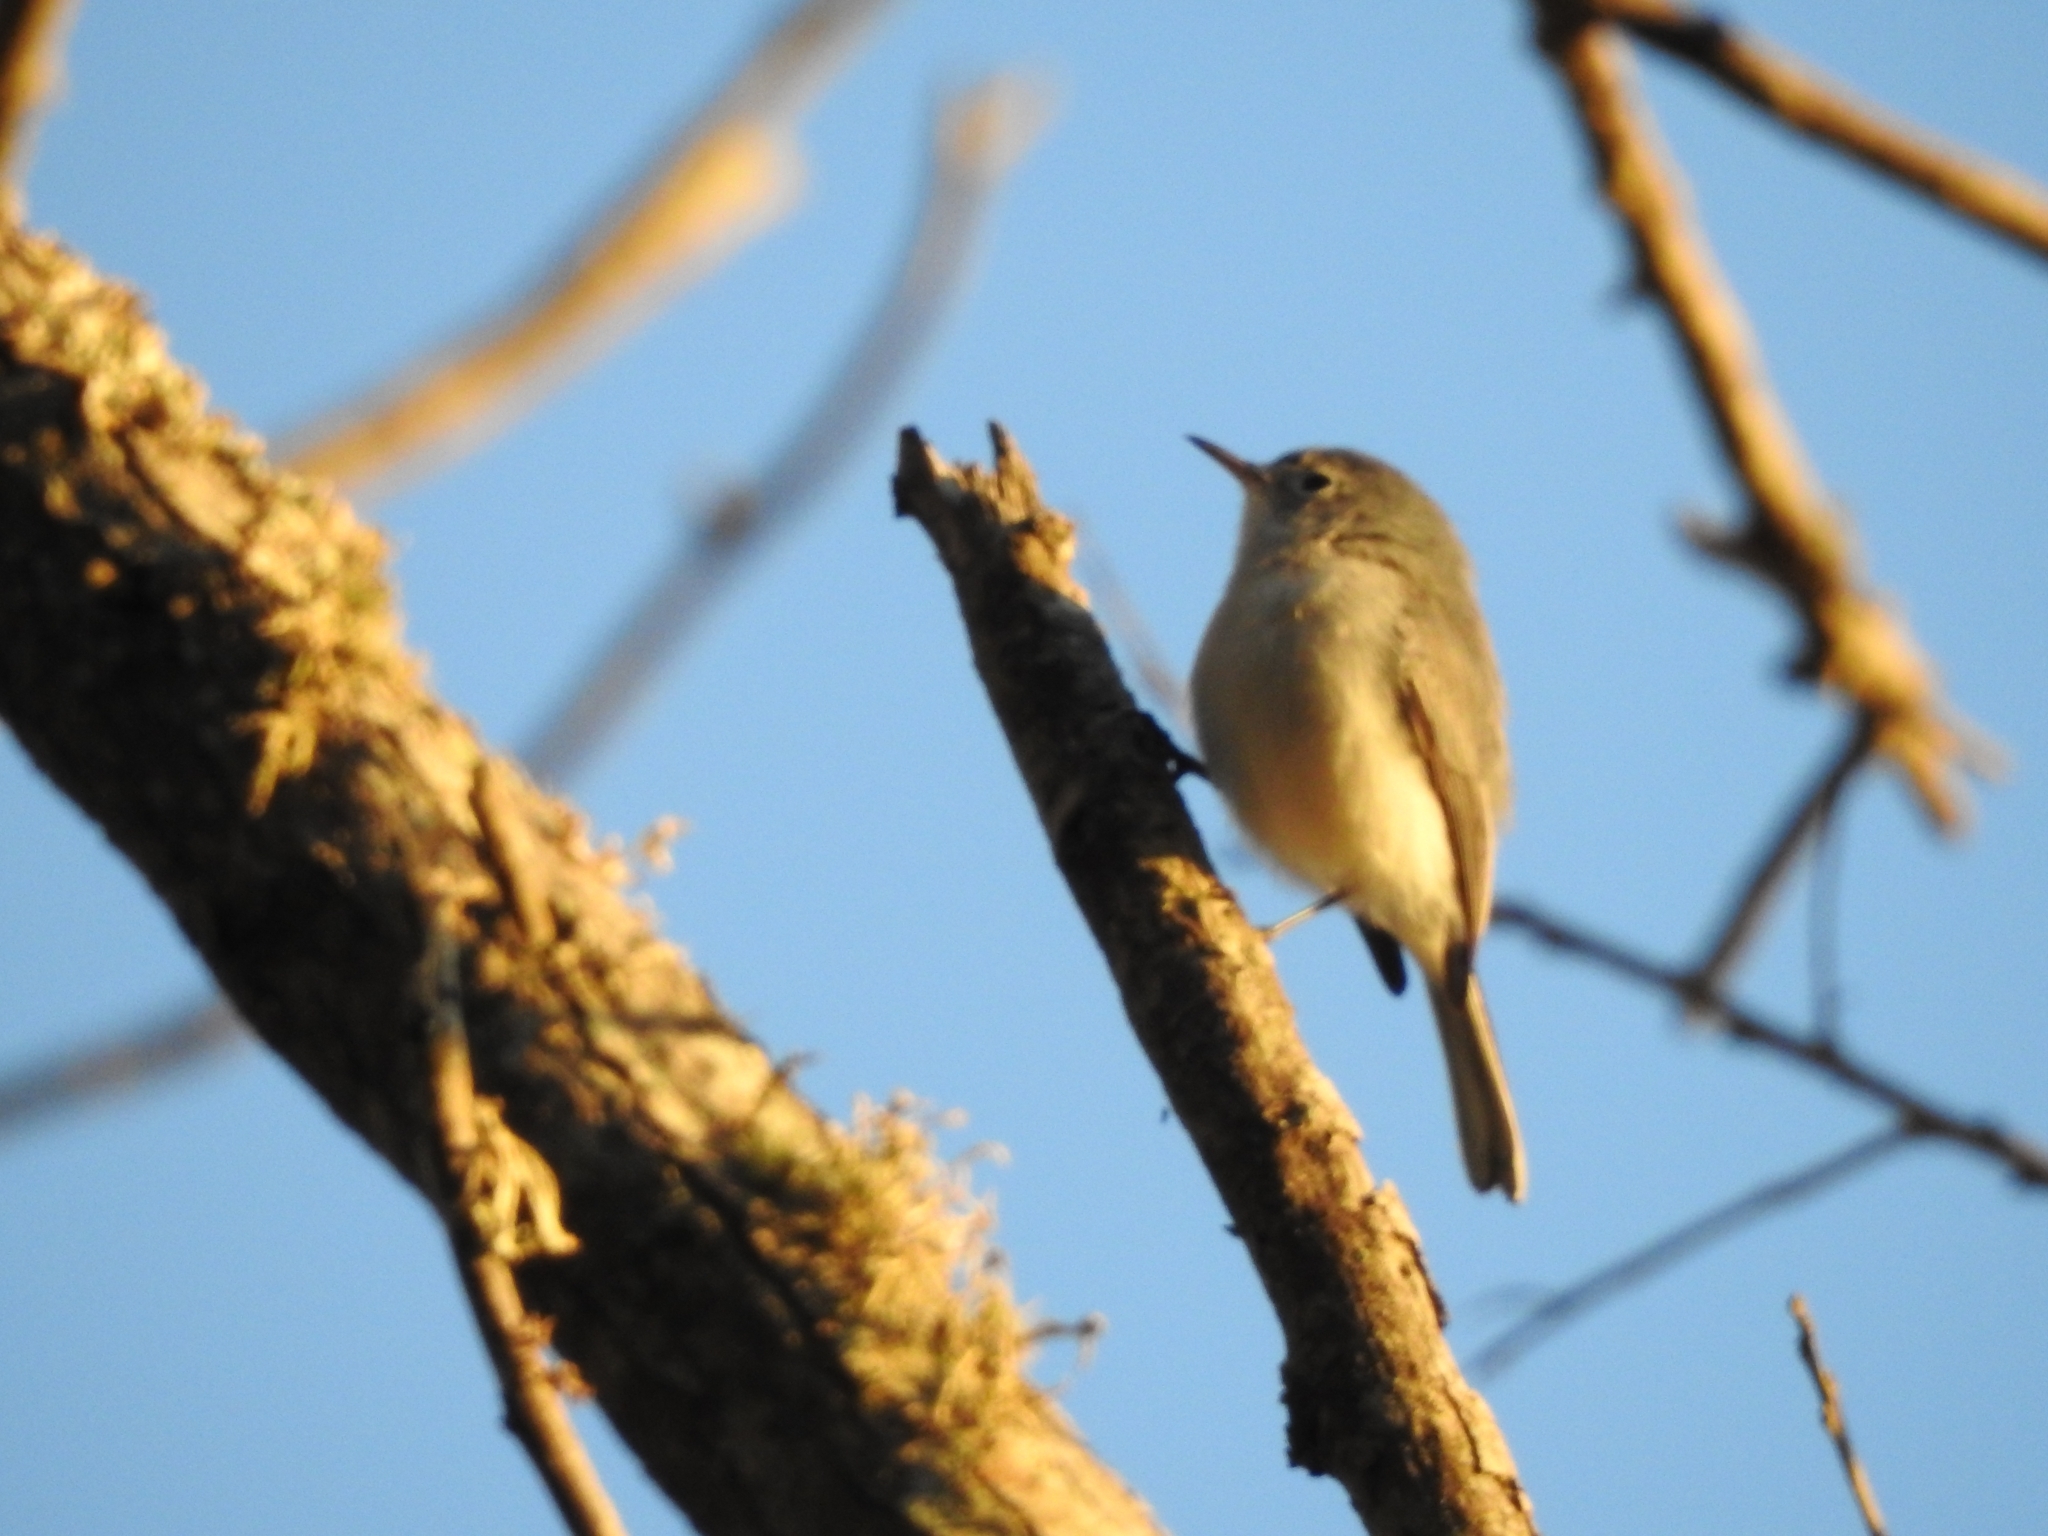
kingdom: Animalia
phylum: Chordata
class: Aves
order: Passeriformes
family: Polioptilidae
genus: Polioptila
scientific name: Polioptila caerulea
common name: Blue-gray gnatcatcher
